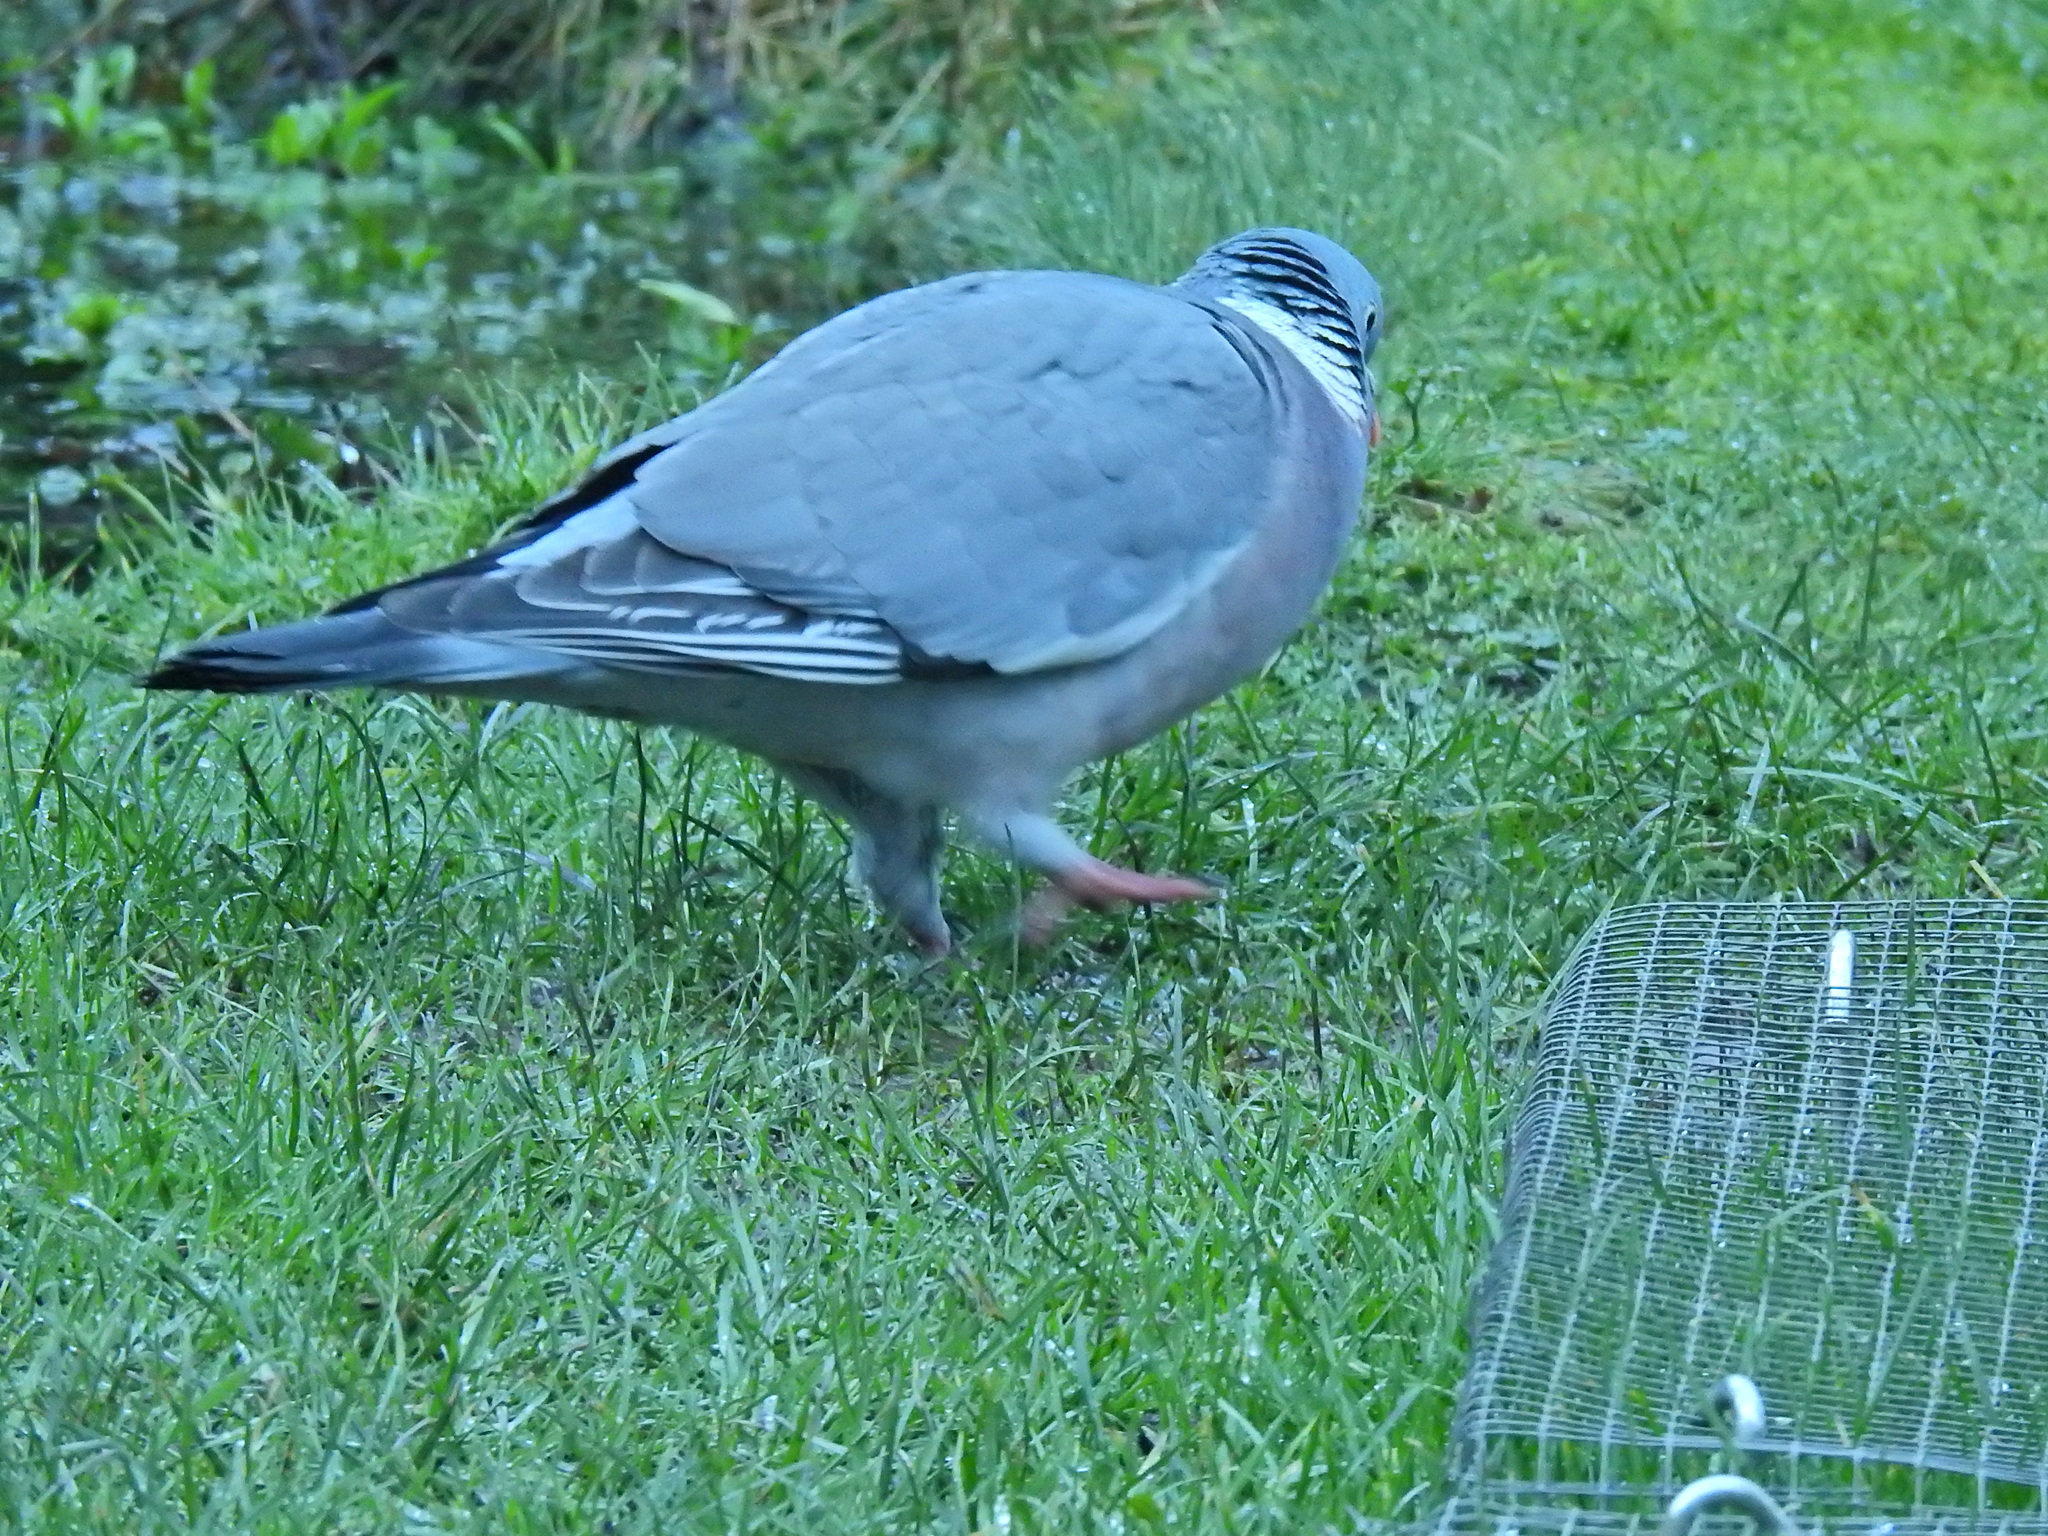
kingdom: Animalia
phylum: Chordata
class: Aves
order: Columbiformes
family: Columbidae
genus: Columba
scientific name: Columba palumbus
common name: Common wood pigeon
